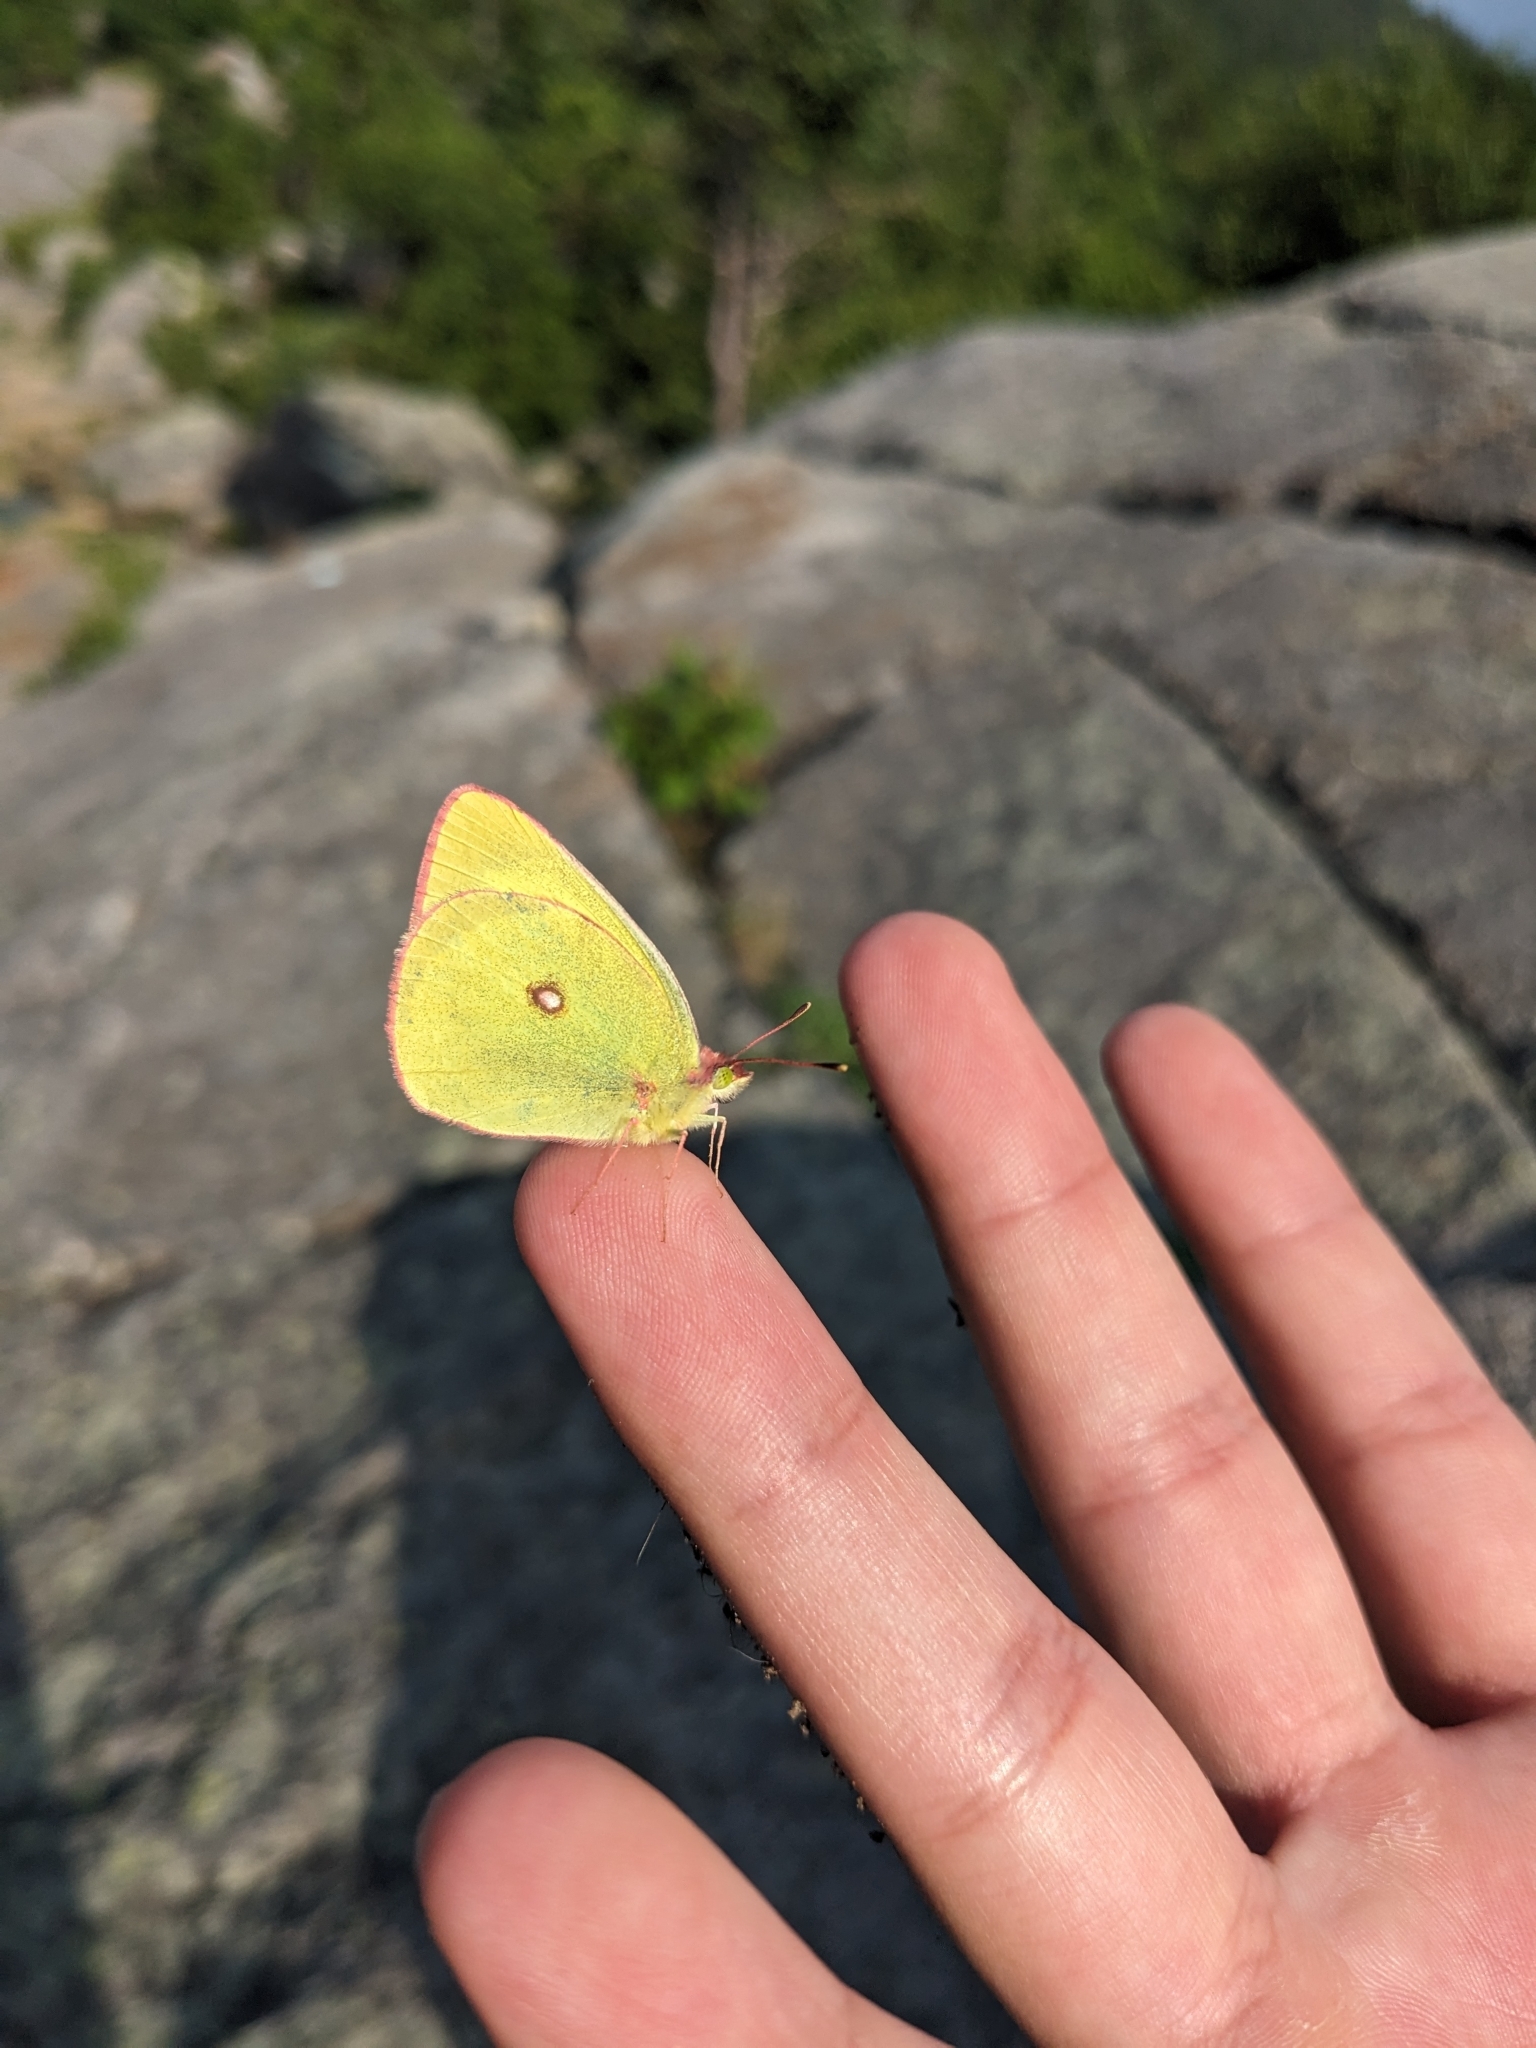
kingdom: Animalia
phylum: Arthropoda
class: Insecta
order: Lepidoptera
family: Pieridae
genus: Colias
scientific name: Colias interior
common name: Pink-edged sulphur
